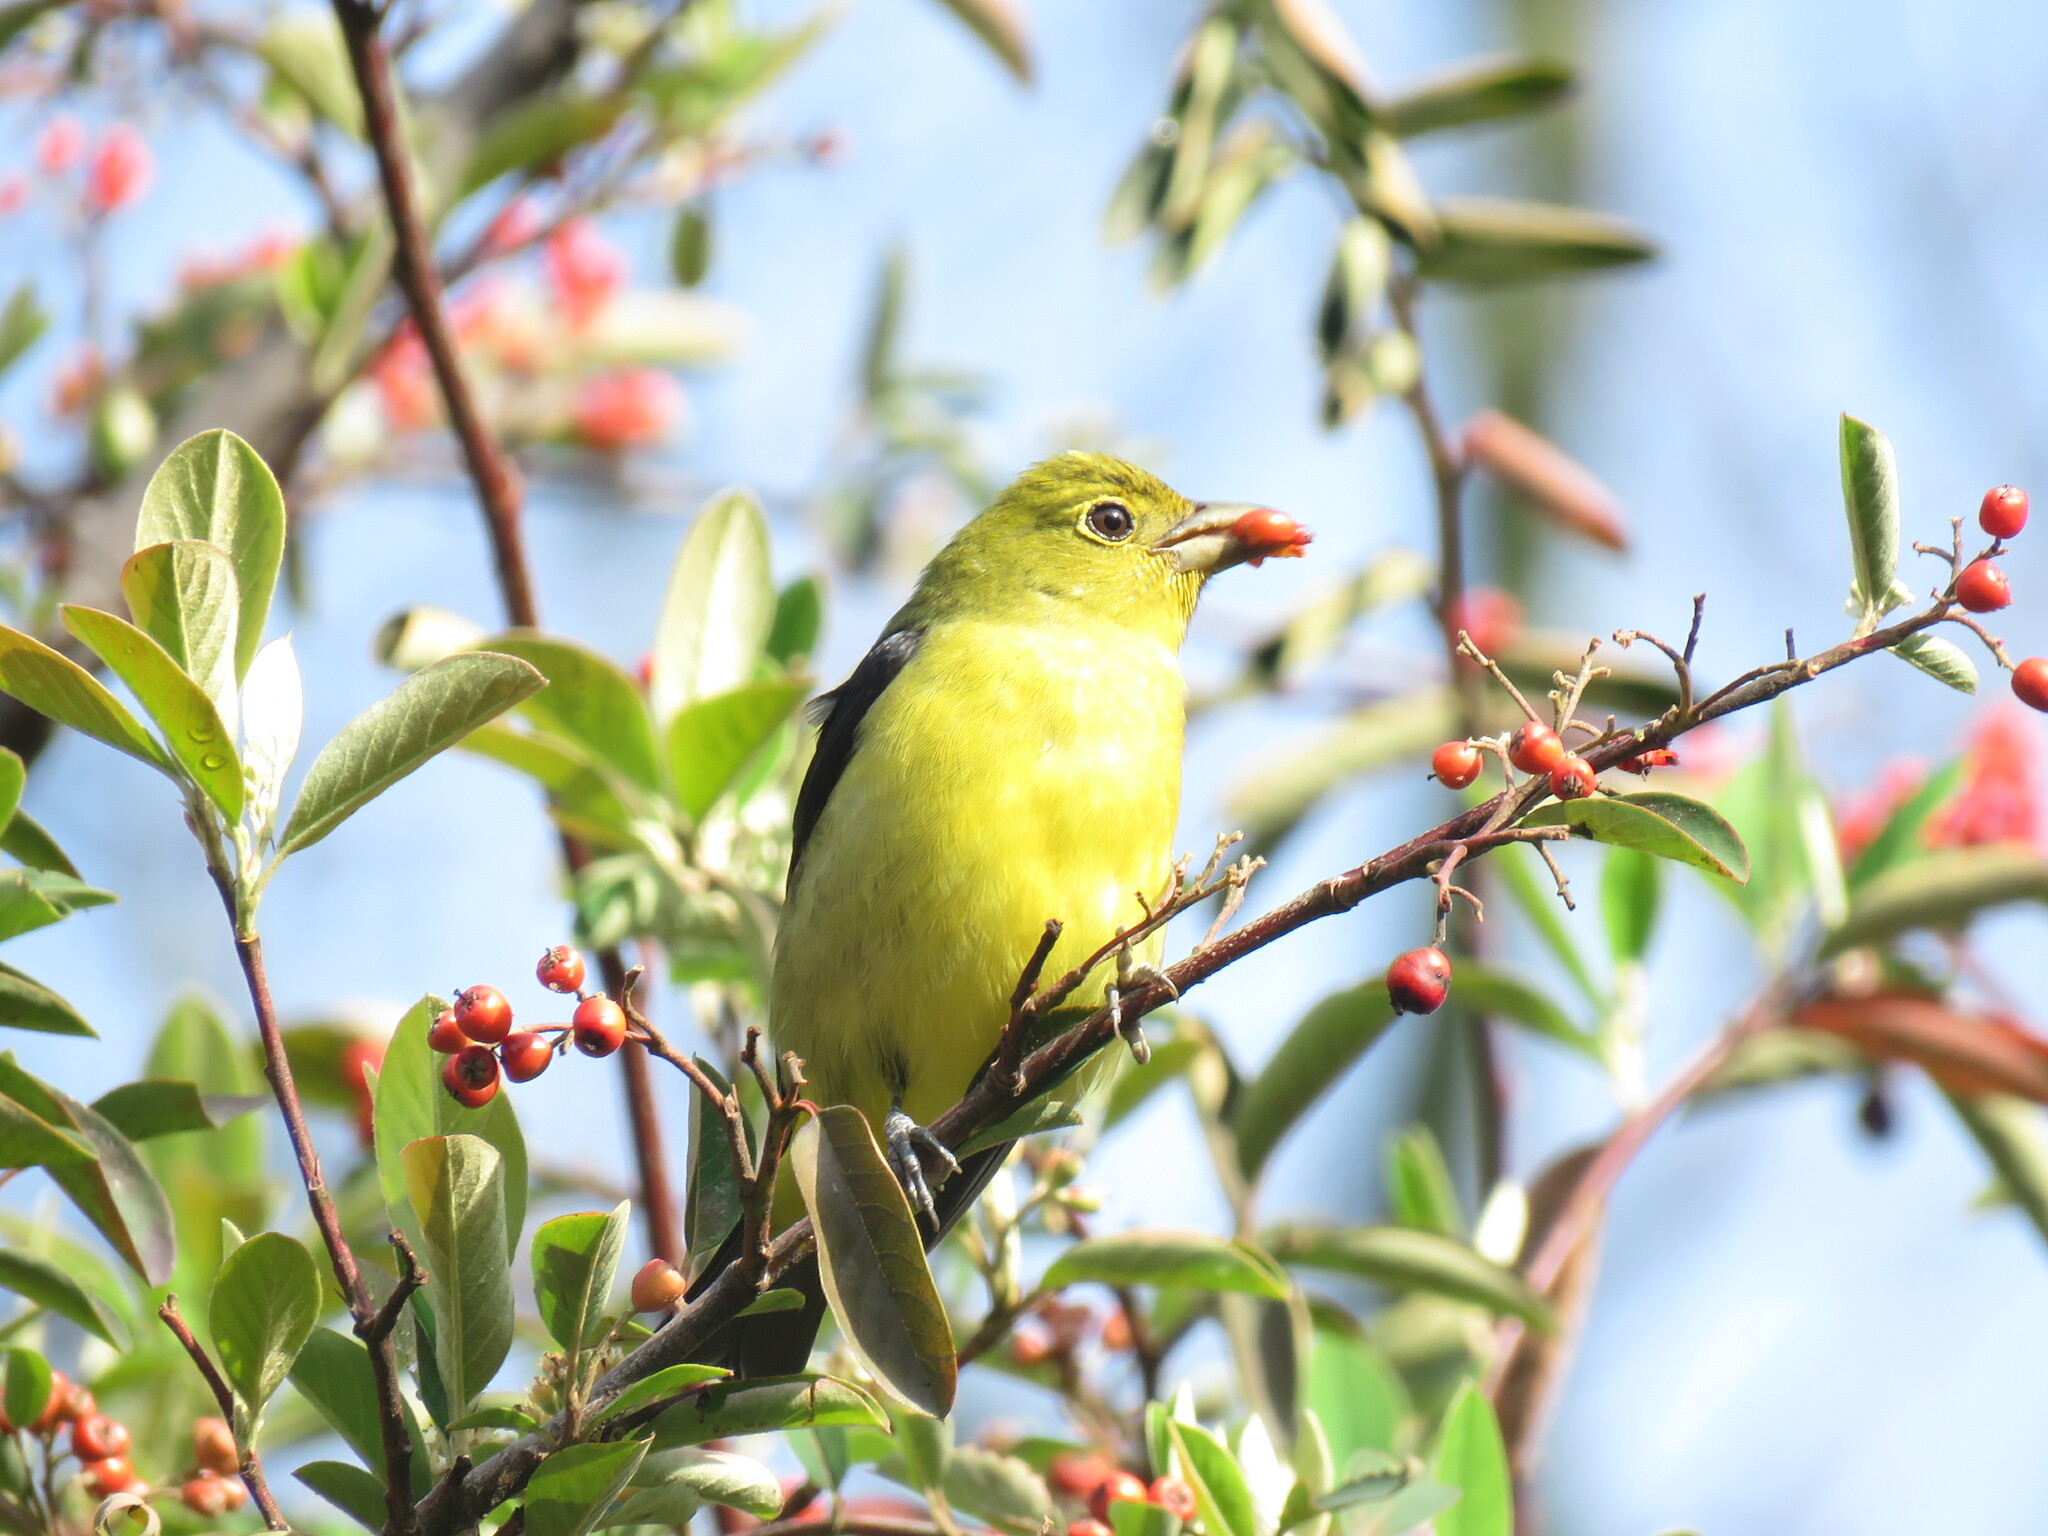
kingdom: Animalia
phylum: Chordata
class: Aves
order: Passeriformes
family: Cardinalidae
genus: Piranga
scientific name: Piranga olivacea
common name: Scarlet tanager
